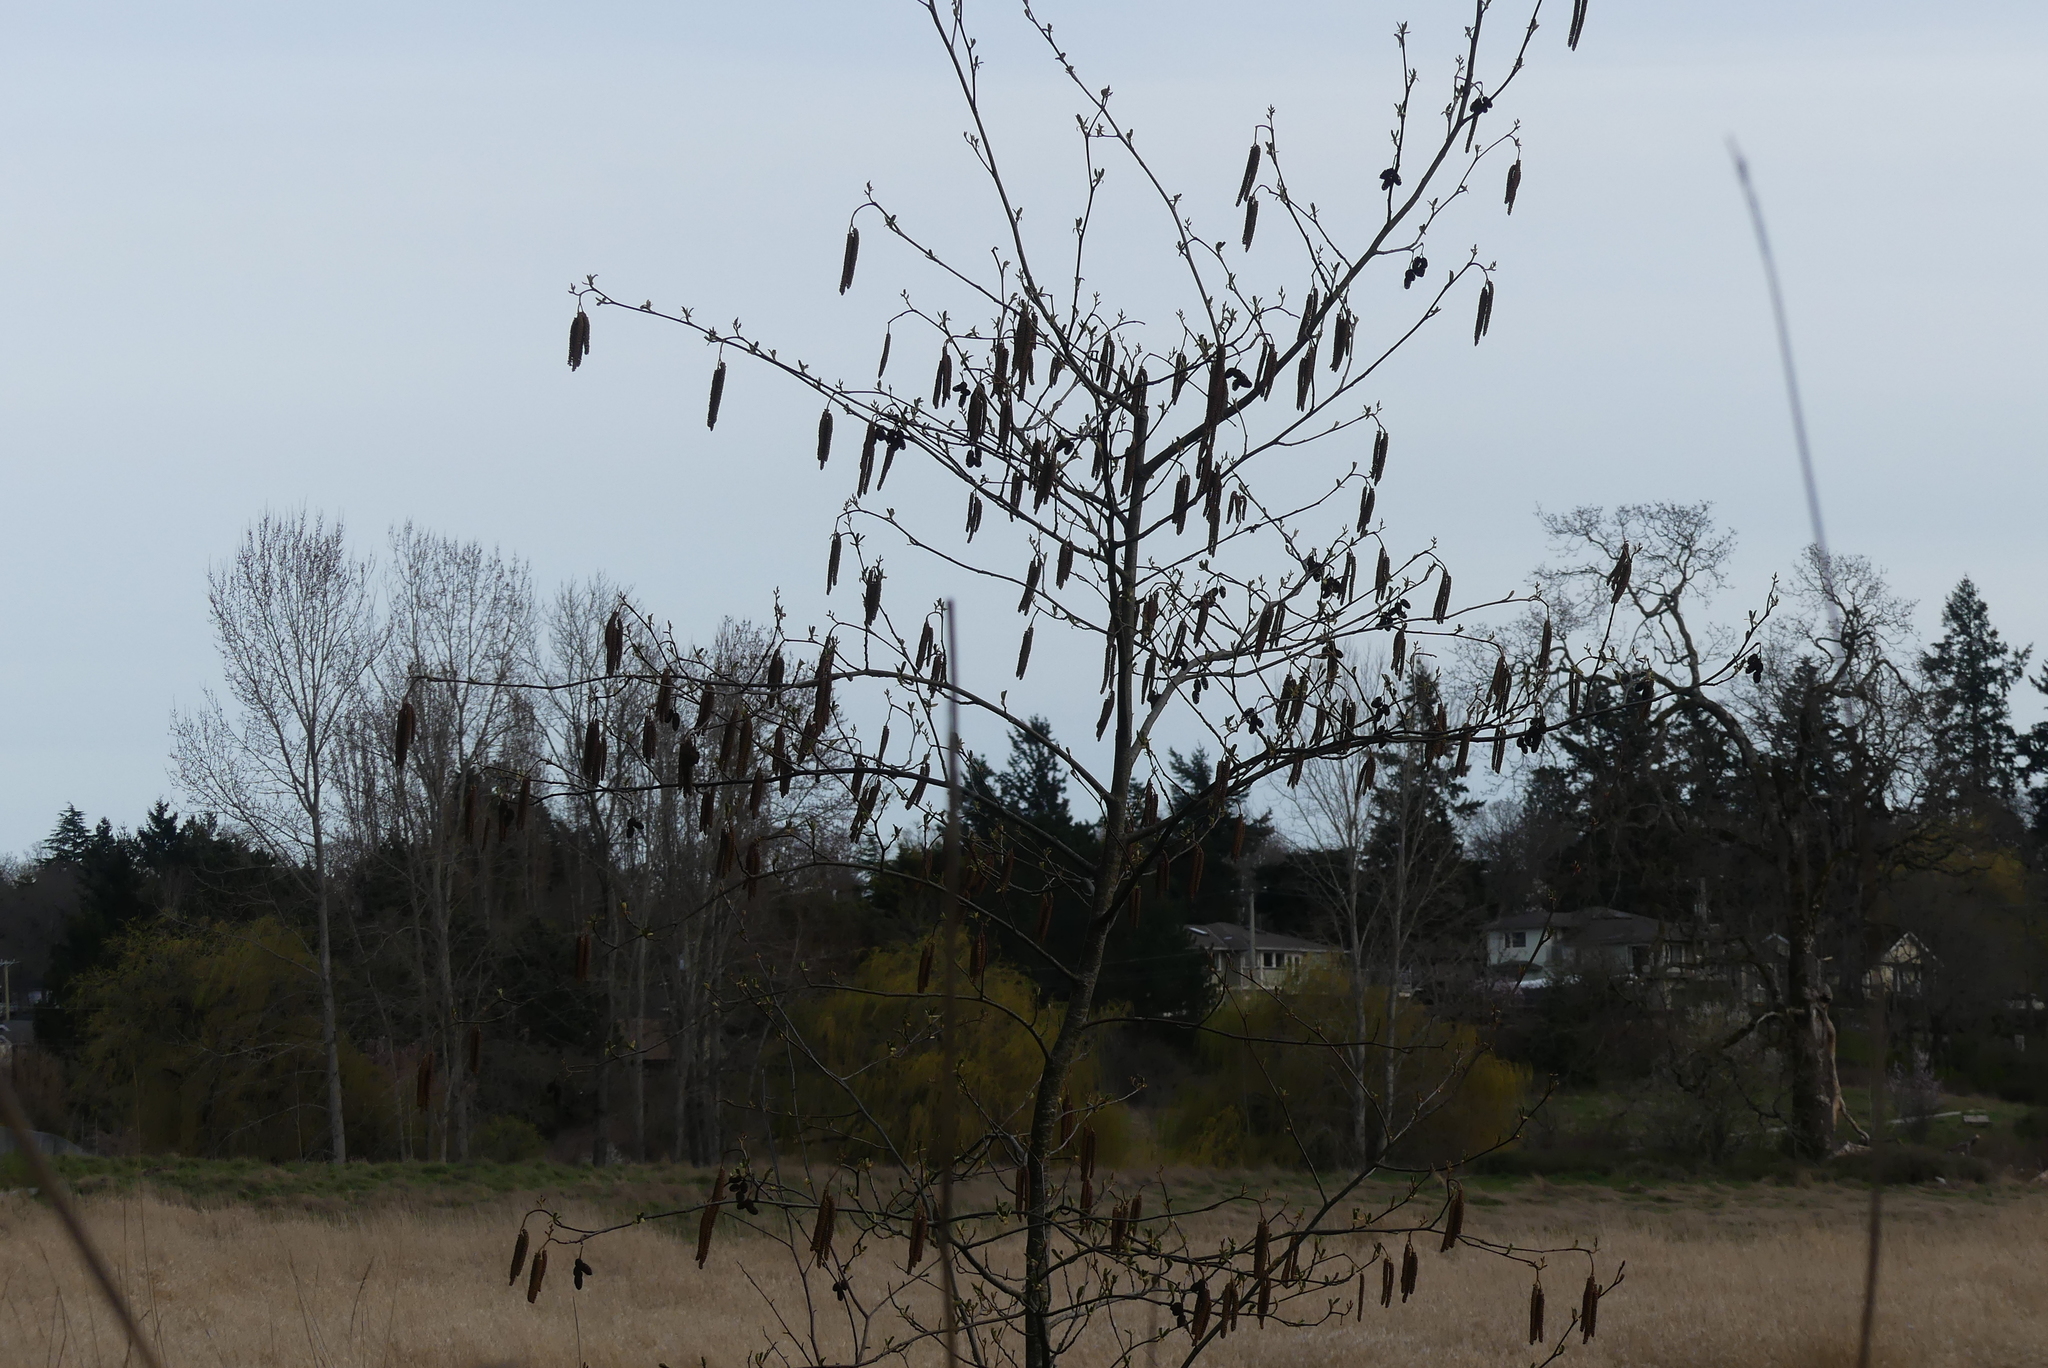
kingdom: Plantae
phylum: Tracheophyta
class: Magnoliopsida
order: Fagales
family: Betulaceae
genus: Alnus
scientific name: Alnus rubra
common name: Red alder
